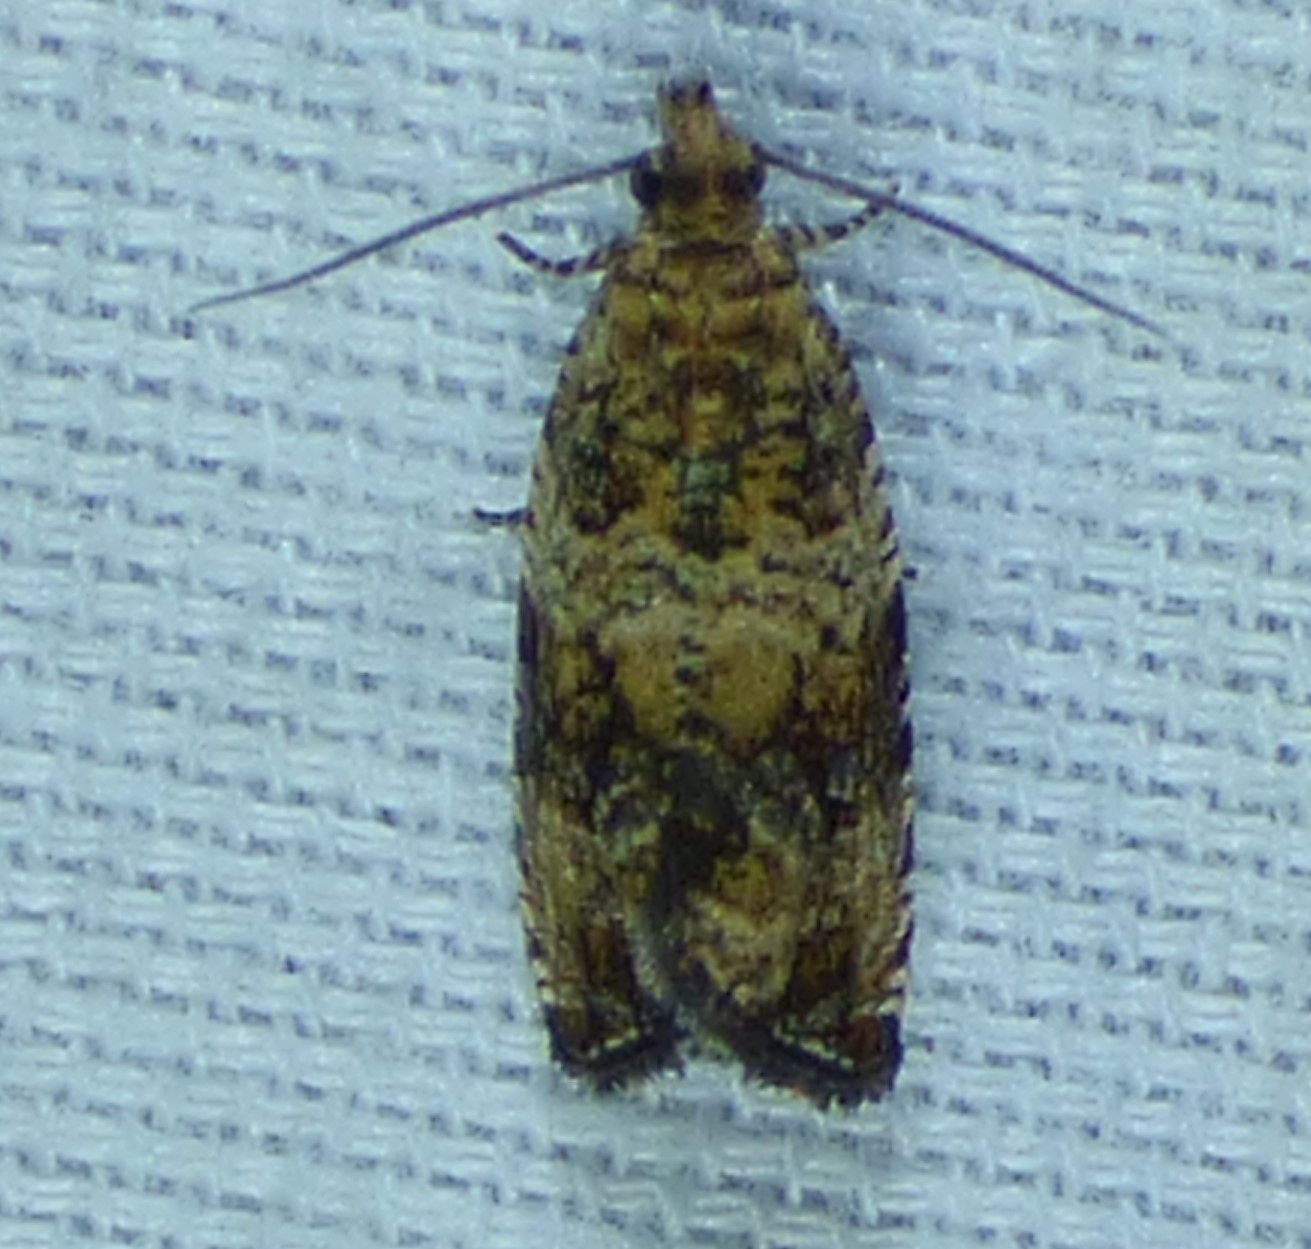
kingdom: Animalia
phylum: Arthropoda
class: Insecta
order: Lepidoptera
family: Tortricidae
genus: Celypha
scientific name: Celypha cespitana
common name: Thyme marble
